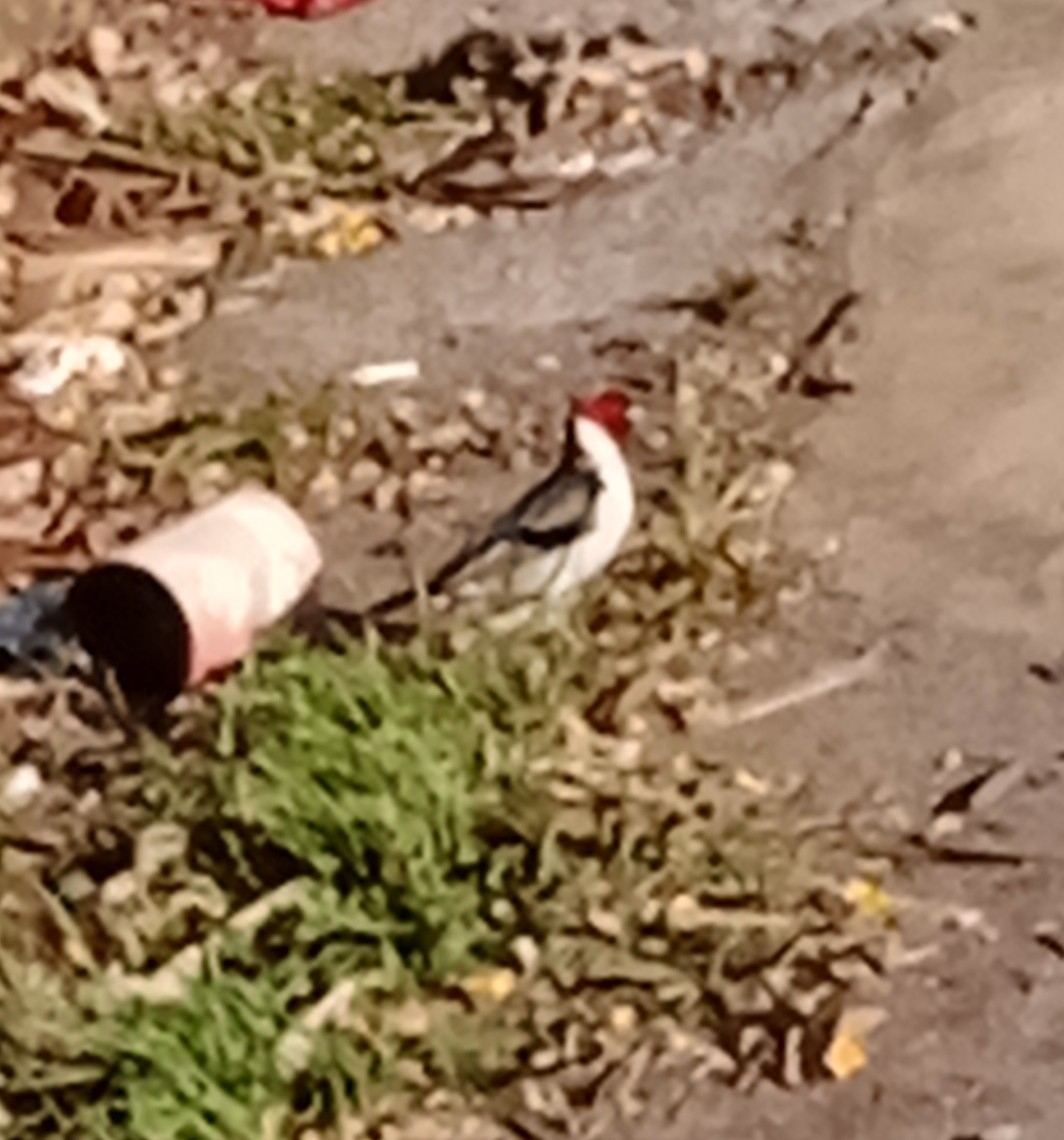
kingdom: Animalia
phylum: Chordata
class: Aves
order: Passeriformes
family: Thraupidae
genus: Paroaria
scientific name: Paroaria dominicana
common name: Red-cowled cardinal
